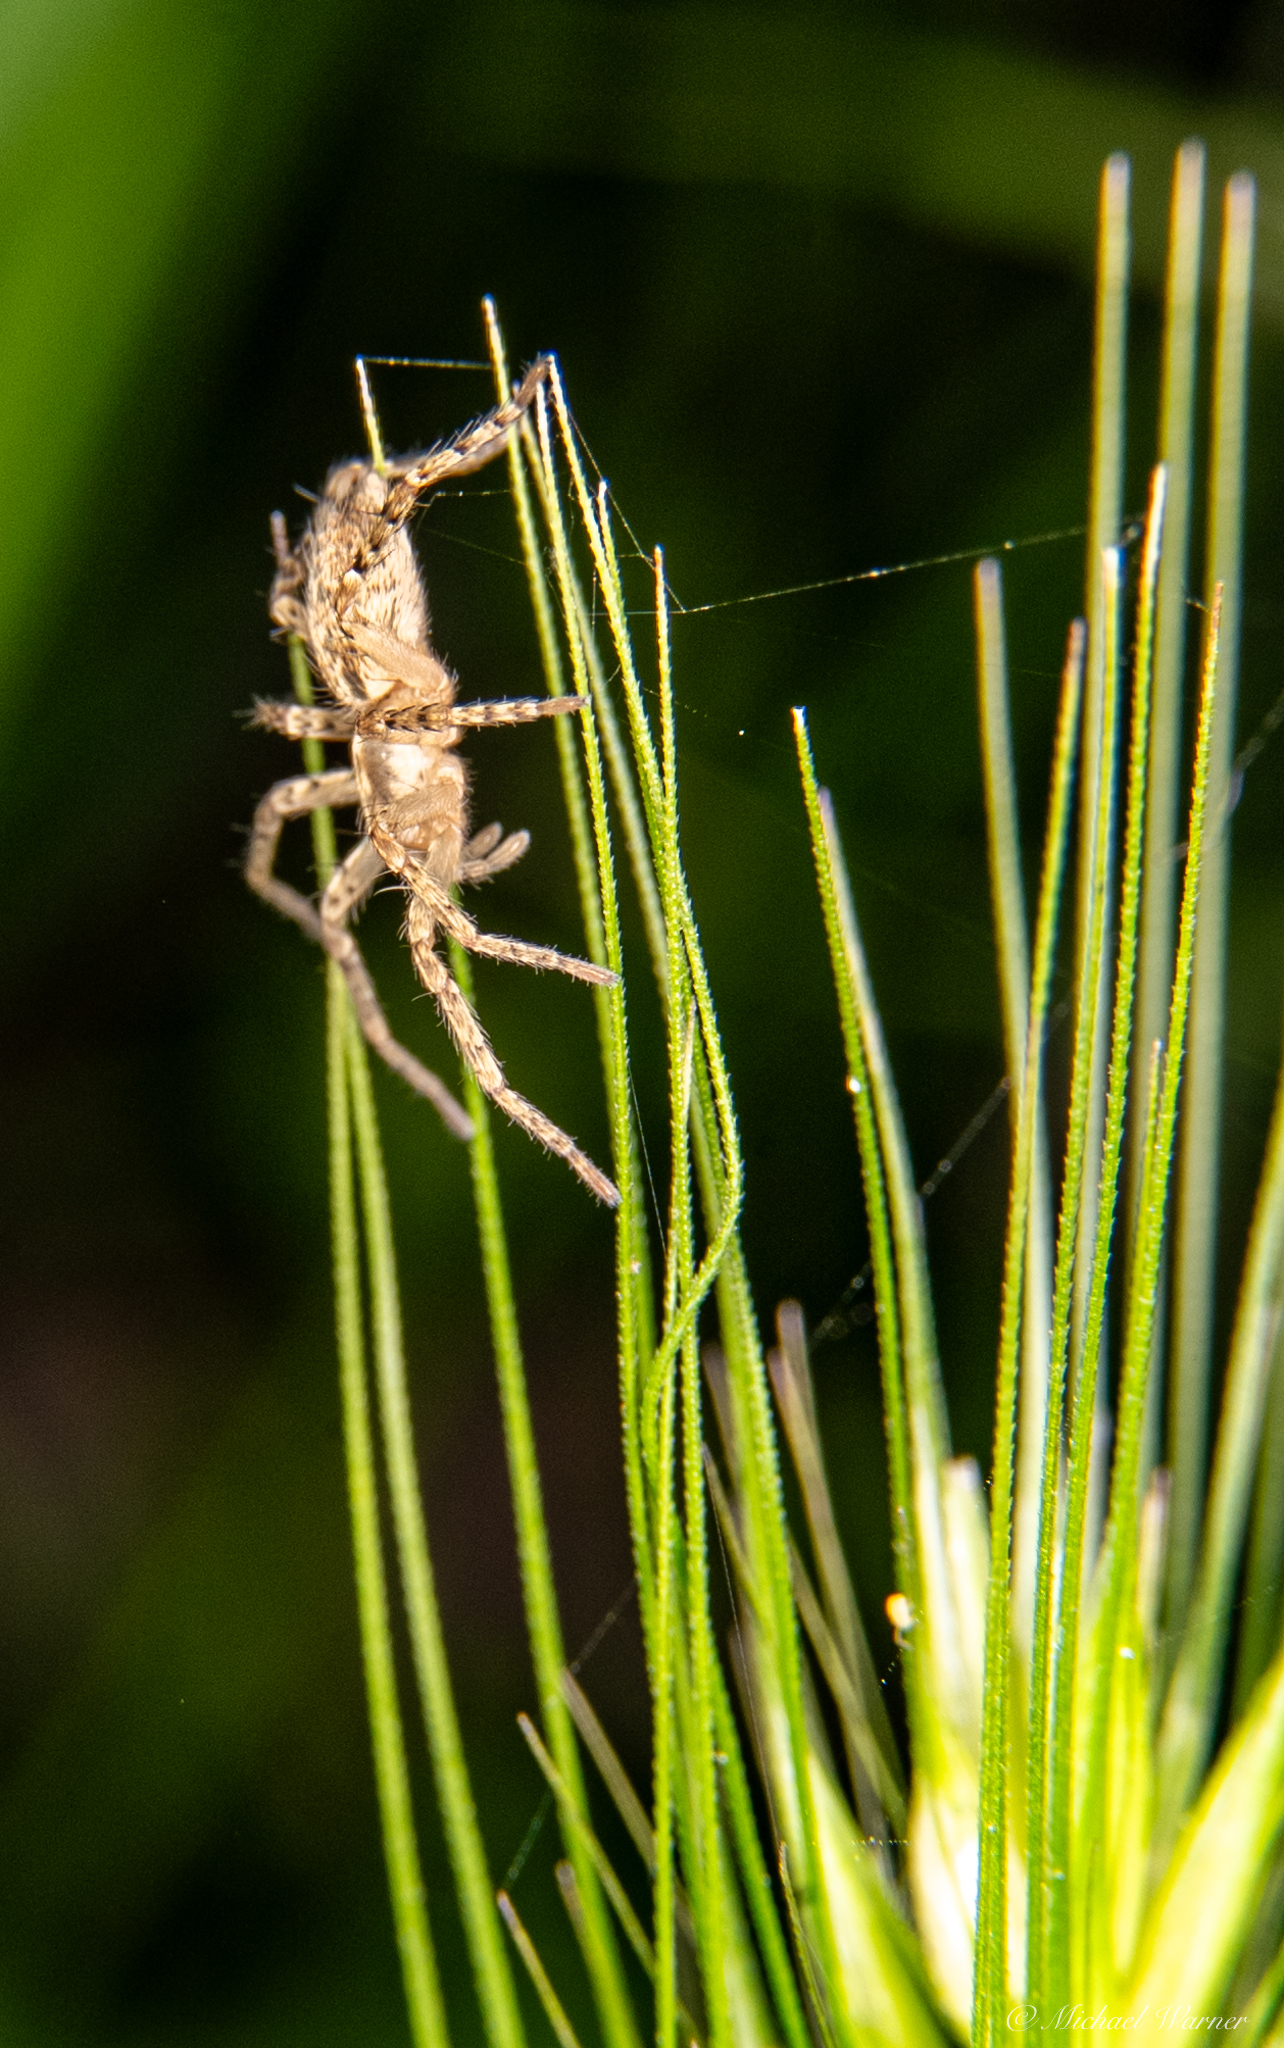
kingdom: Animalia
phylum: Arthropoda
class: Arachnida
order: Araneae
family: Anyphaenidae
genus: Anyphaena
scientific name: Anyphaena
